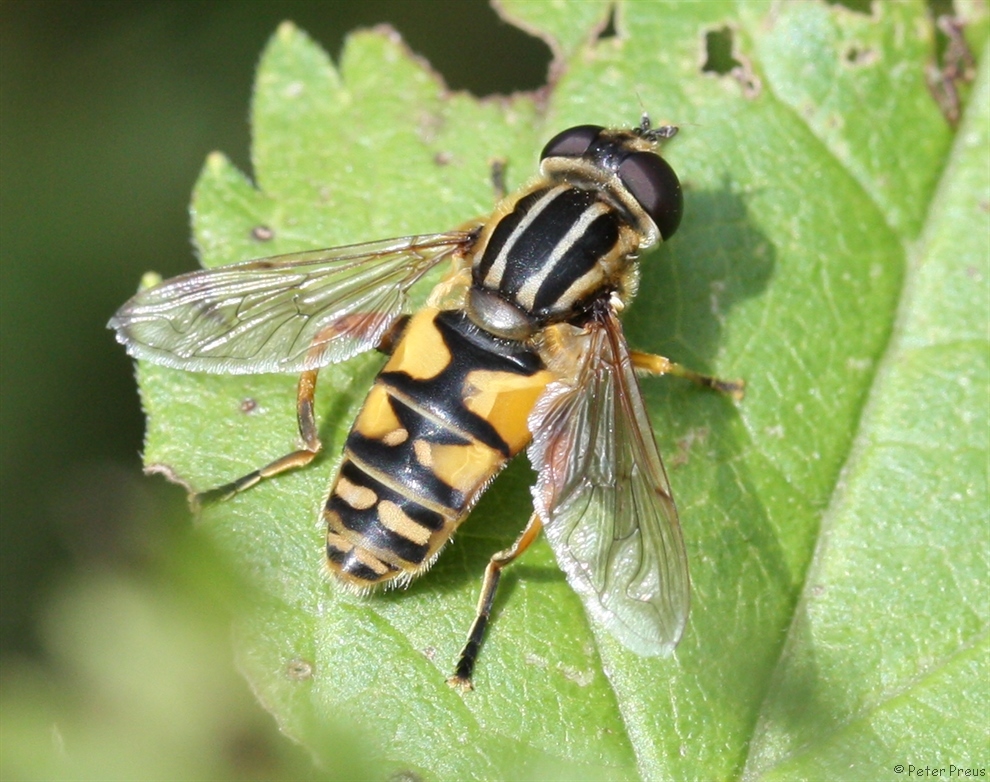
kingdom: Animalia
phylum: Arthropoda
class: Insecta
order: Diptera
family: Syrphidae
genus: Helophilus
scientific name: Helophilus pendulus
